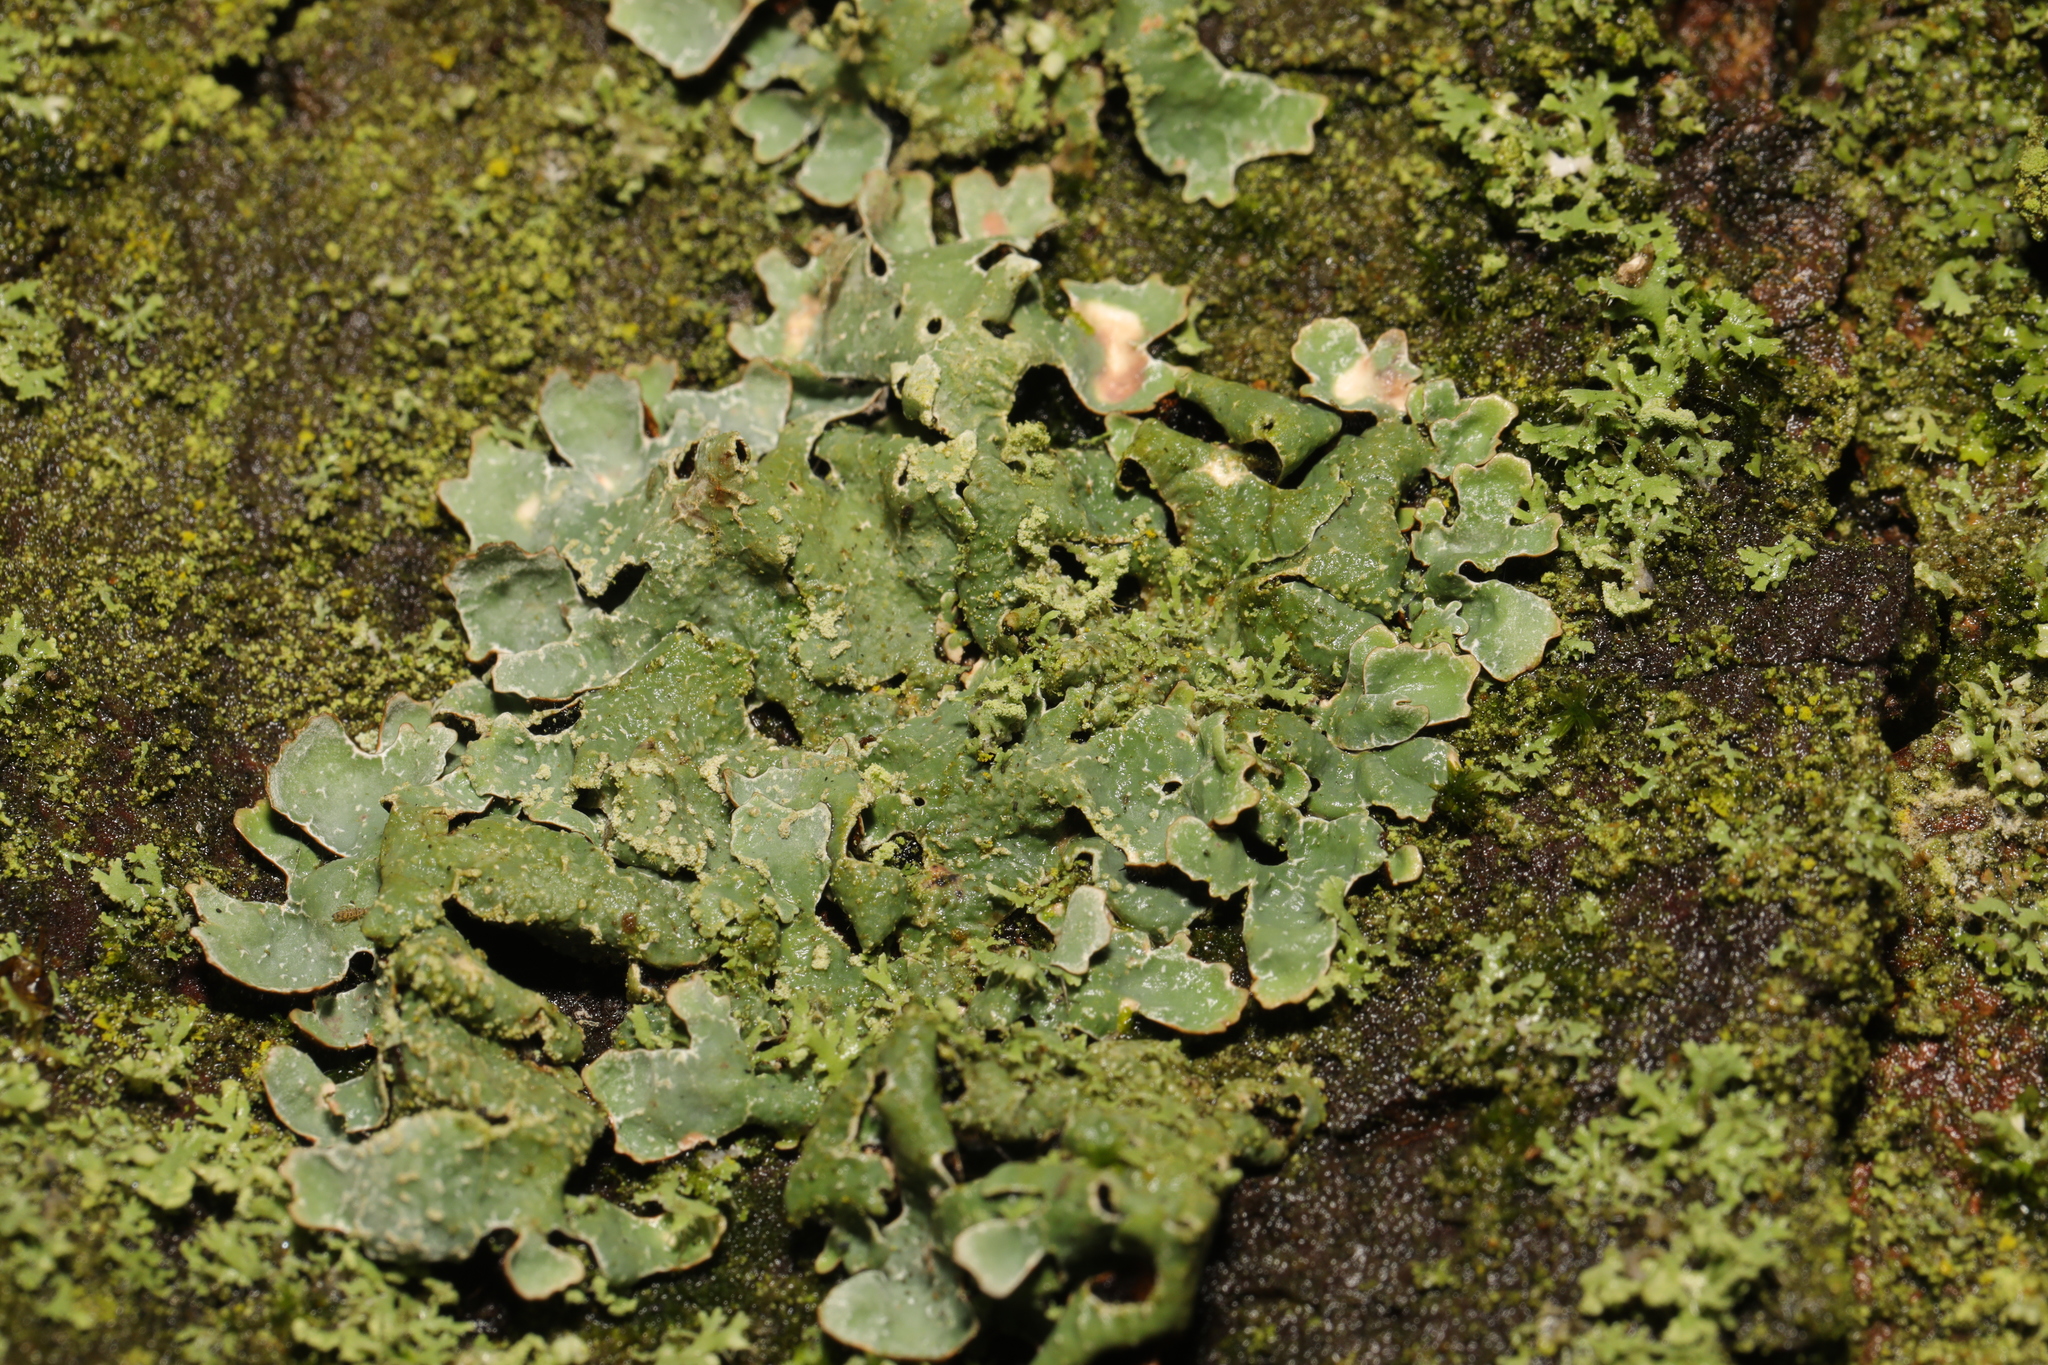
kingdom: Fungi
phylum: Ascomycota
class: Lecanoromycetes
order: Lecanorales
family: Parmeliaceae
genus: Parmelia
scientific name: Parmelia sulcata
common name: Netted shield lichen
